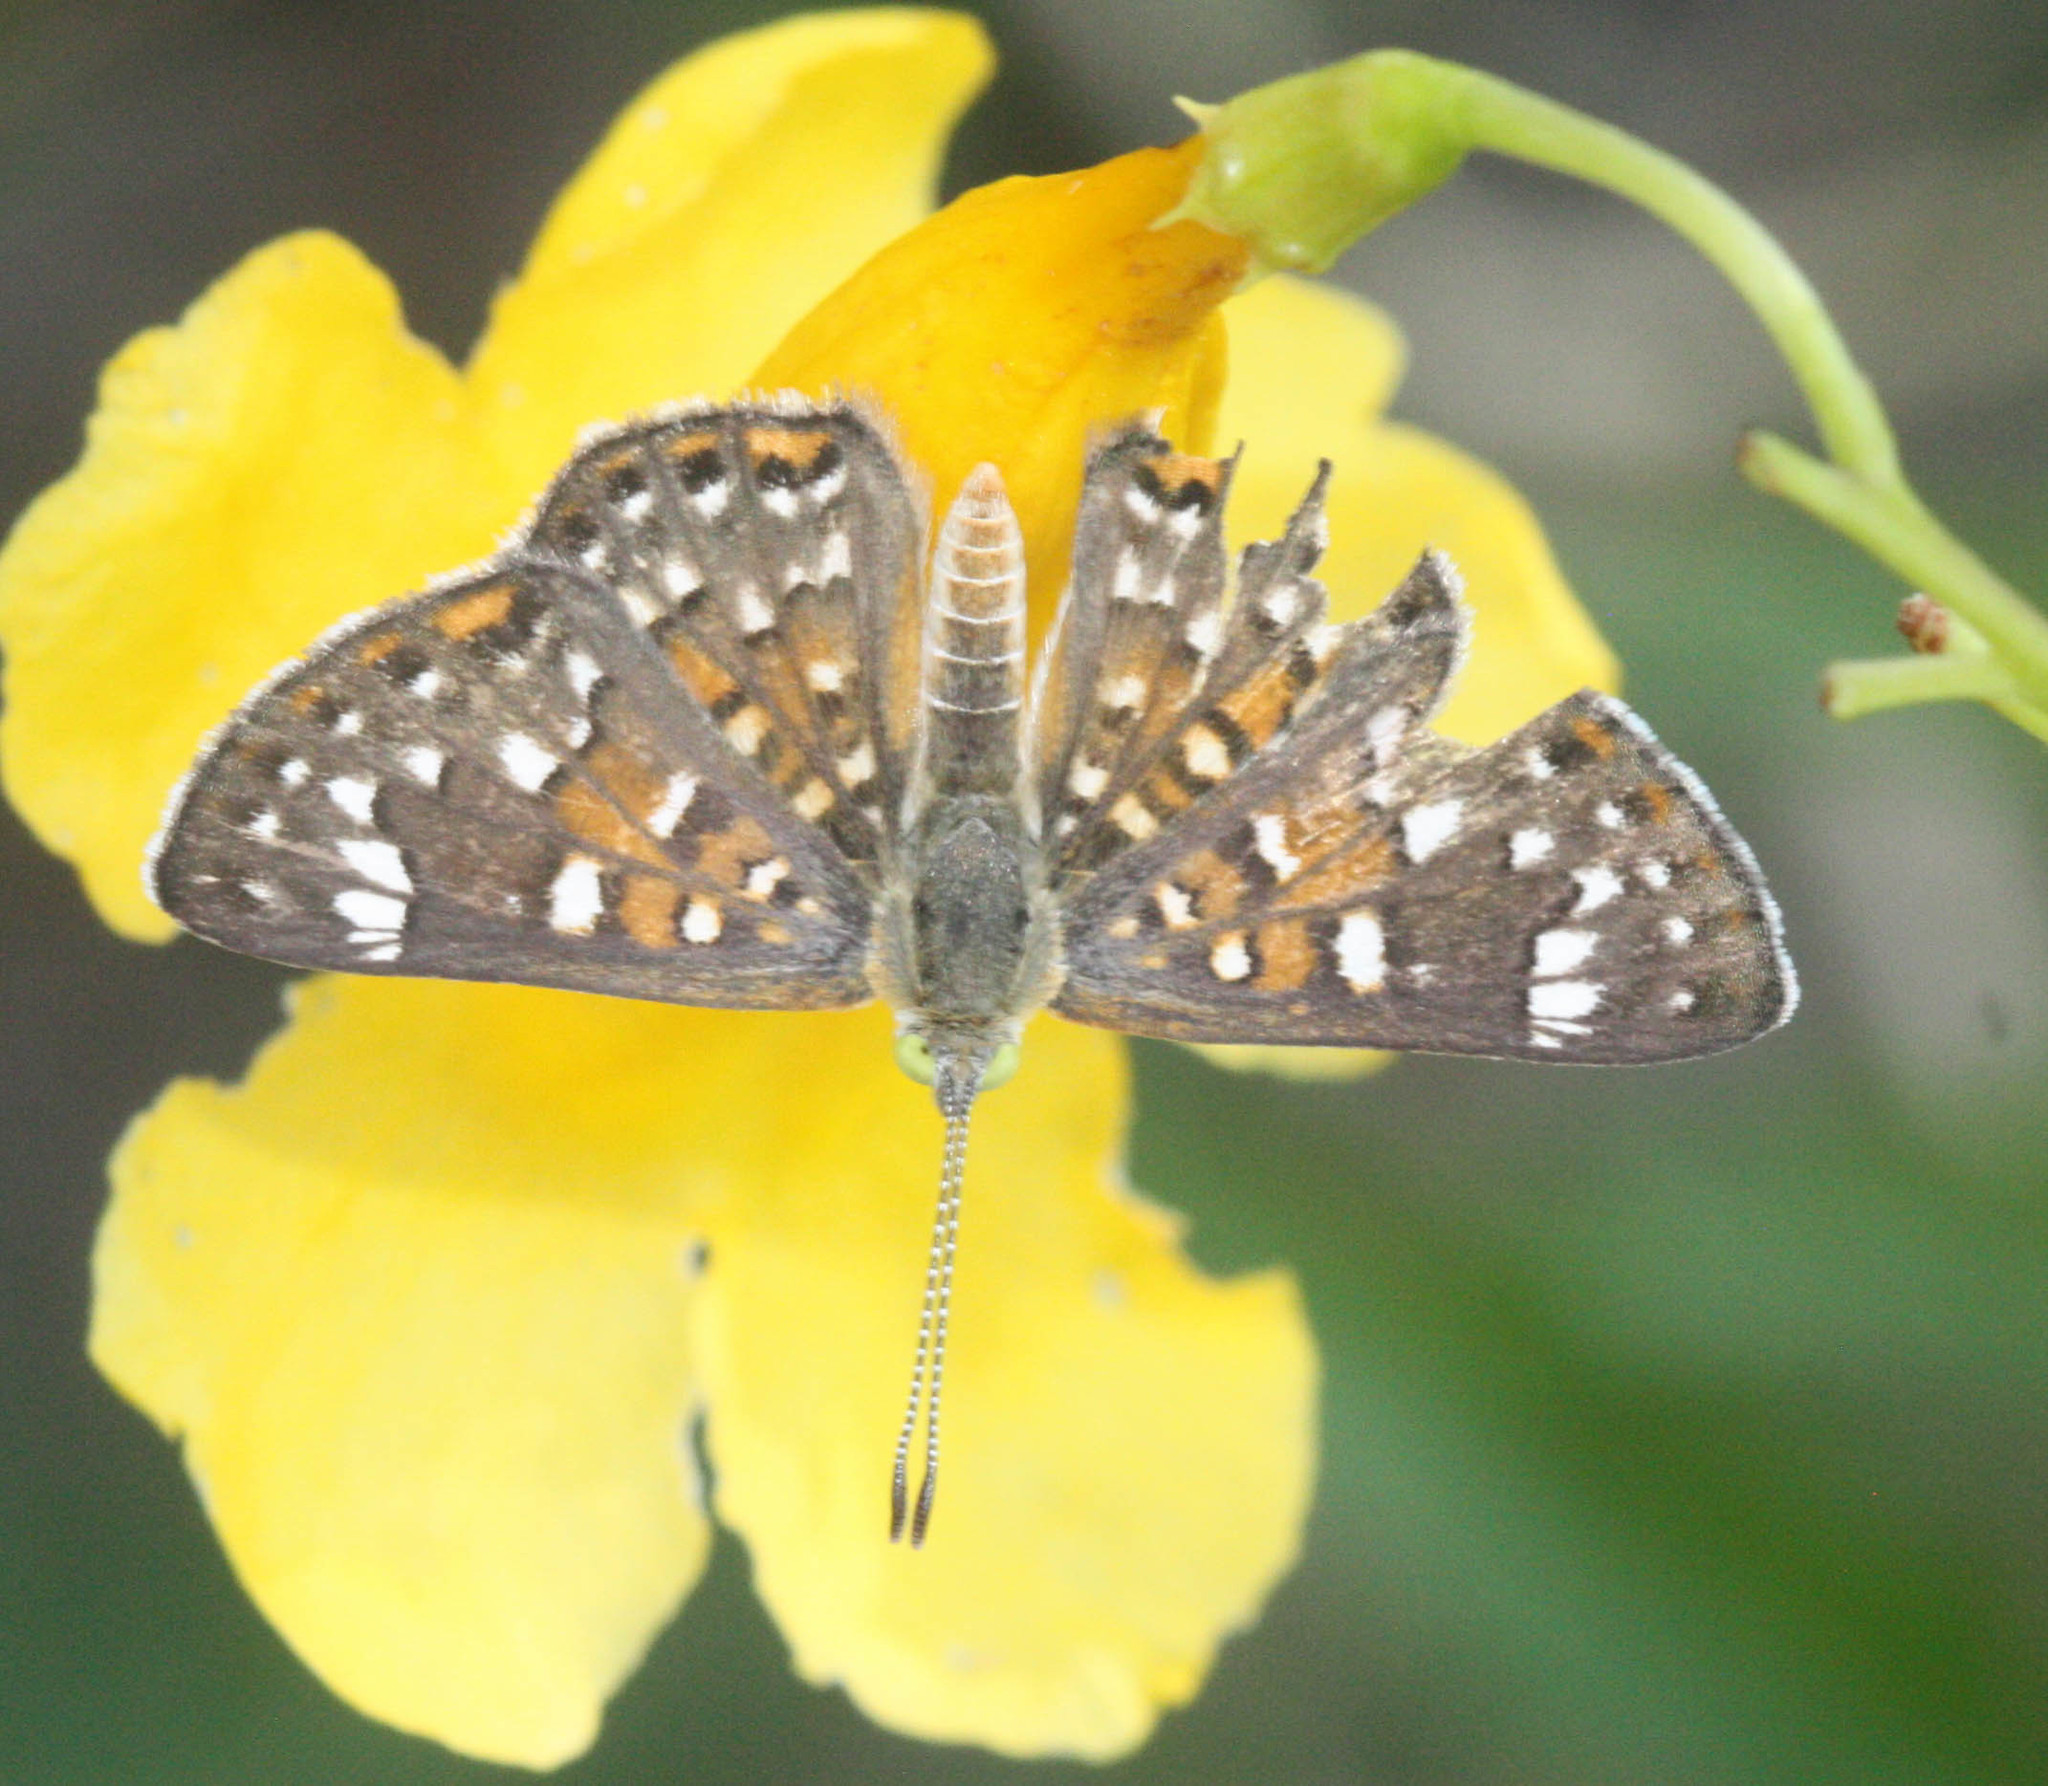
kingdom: Animalia
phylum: Arthropoda
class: Insecta
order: Lepidoptera
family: Riodinidae
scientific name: Riodinidae
